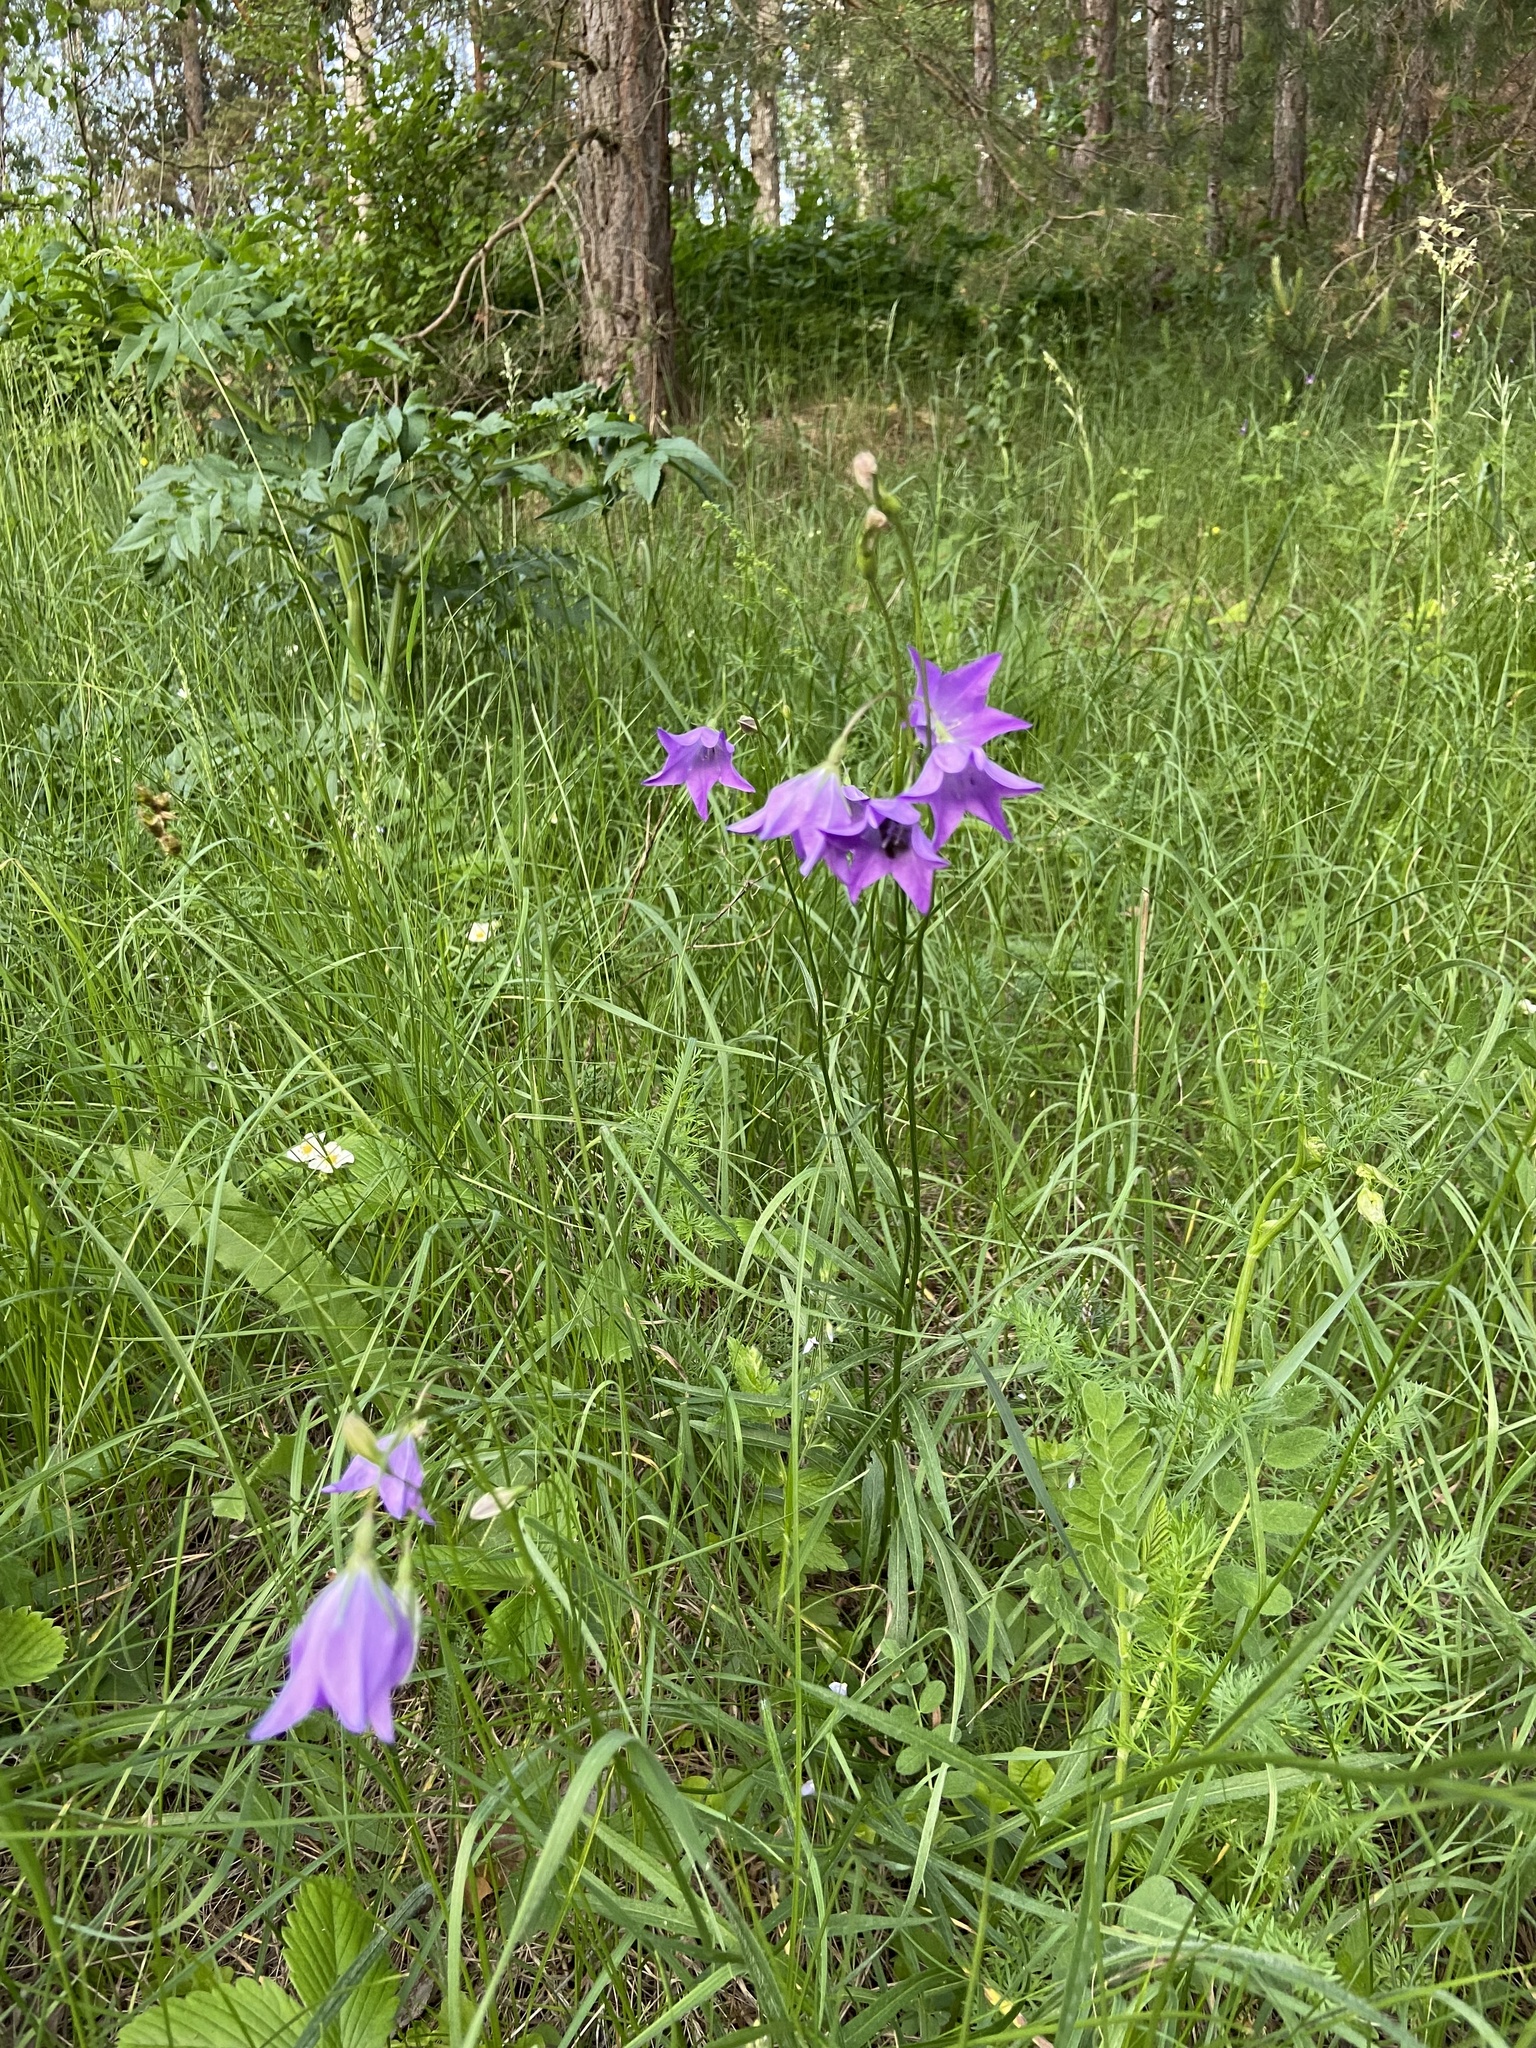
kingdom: Plantae
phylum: Tracheophyta
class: Magnoliopsida
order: Asterales
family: Campanulaceae
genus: Campanula
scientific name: Campanula stevenii
